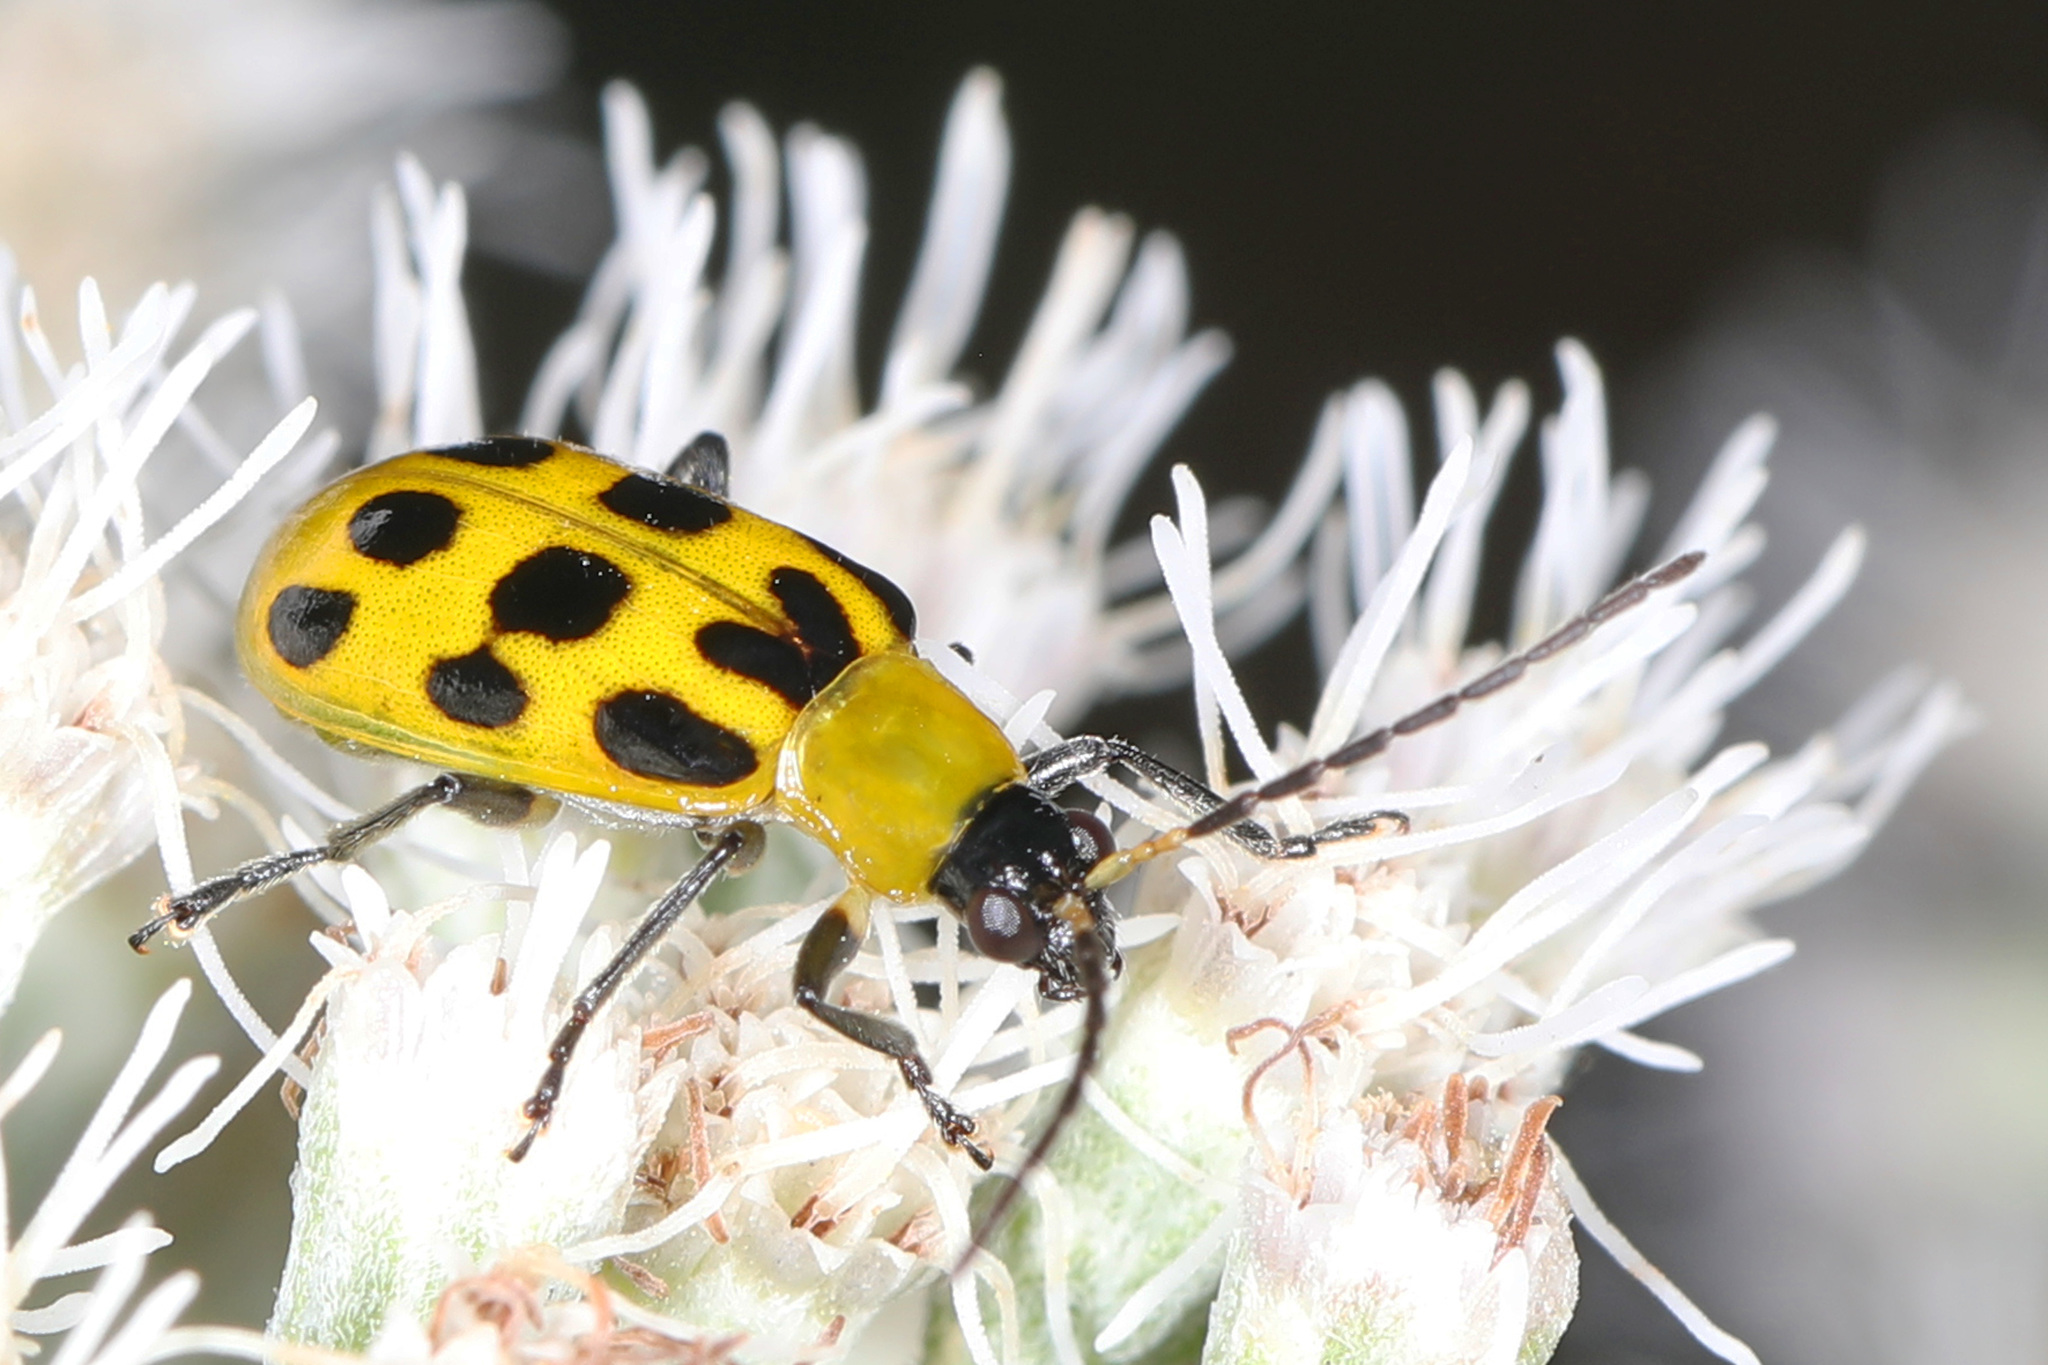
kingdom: Animalia
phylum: Arthropoda
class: Insecta
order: Coleoptera
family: Chrysomelidae
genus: Diabrotica
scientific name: Diabrotica undecimpunctata
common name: Spotted cucumber beetle
